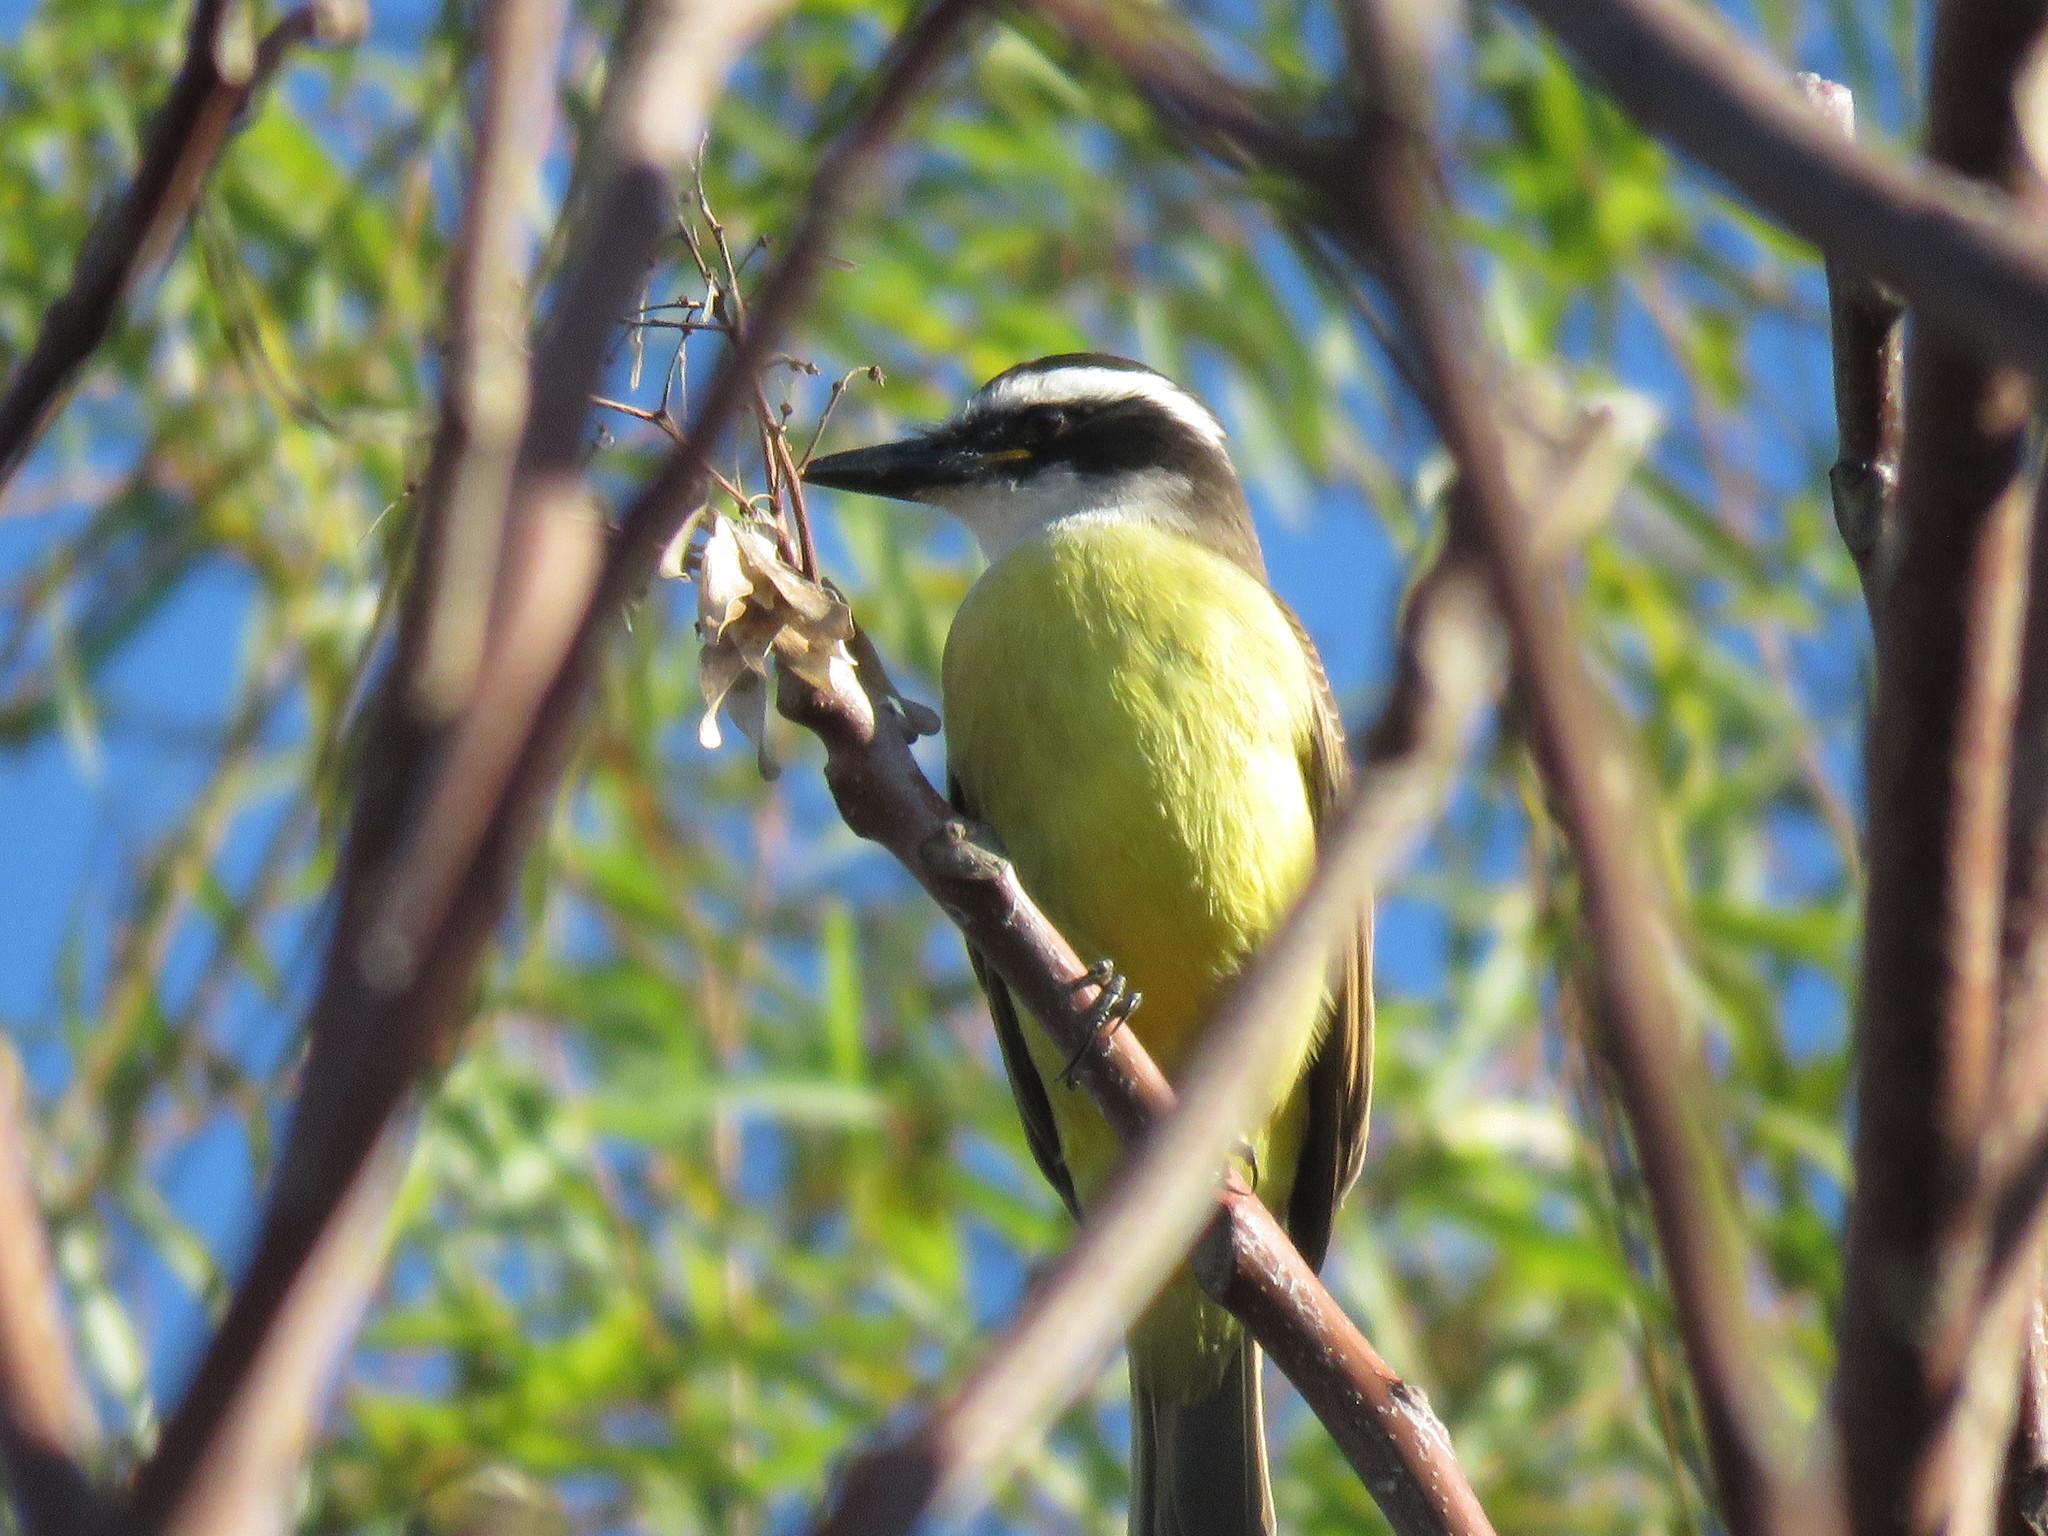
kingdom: Animalia
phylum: Chordata
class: Aves
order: Passeriformes
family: Tyrannidae
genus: Pitangus
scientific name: Pitangus sulphuratus
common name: Great kiskadee
